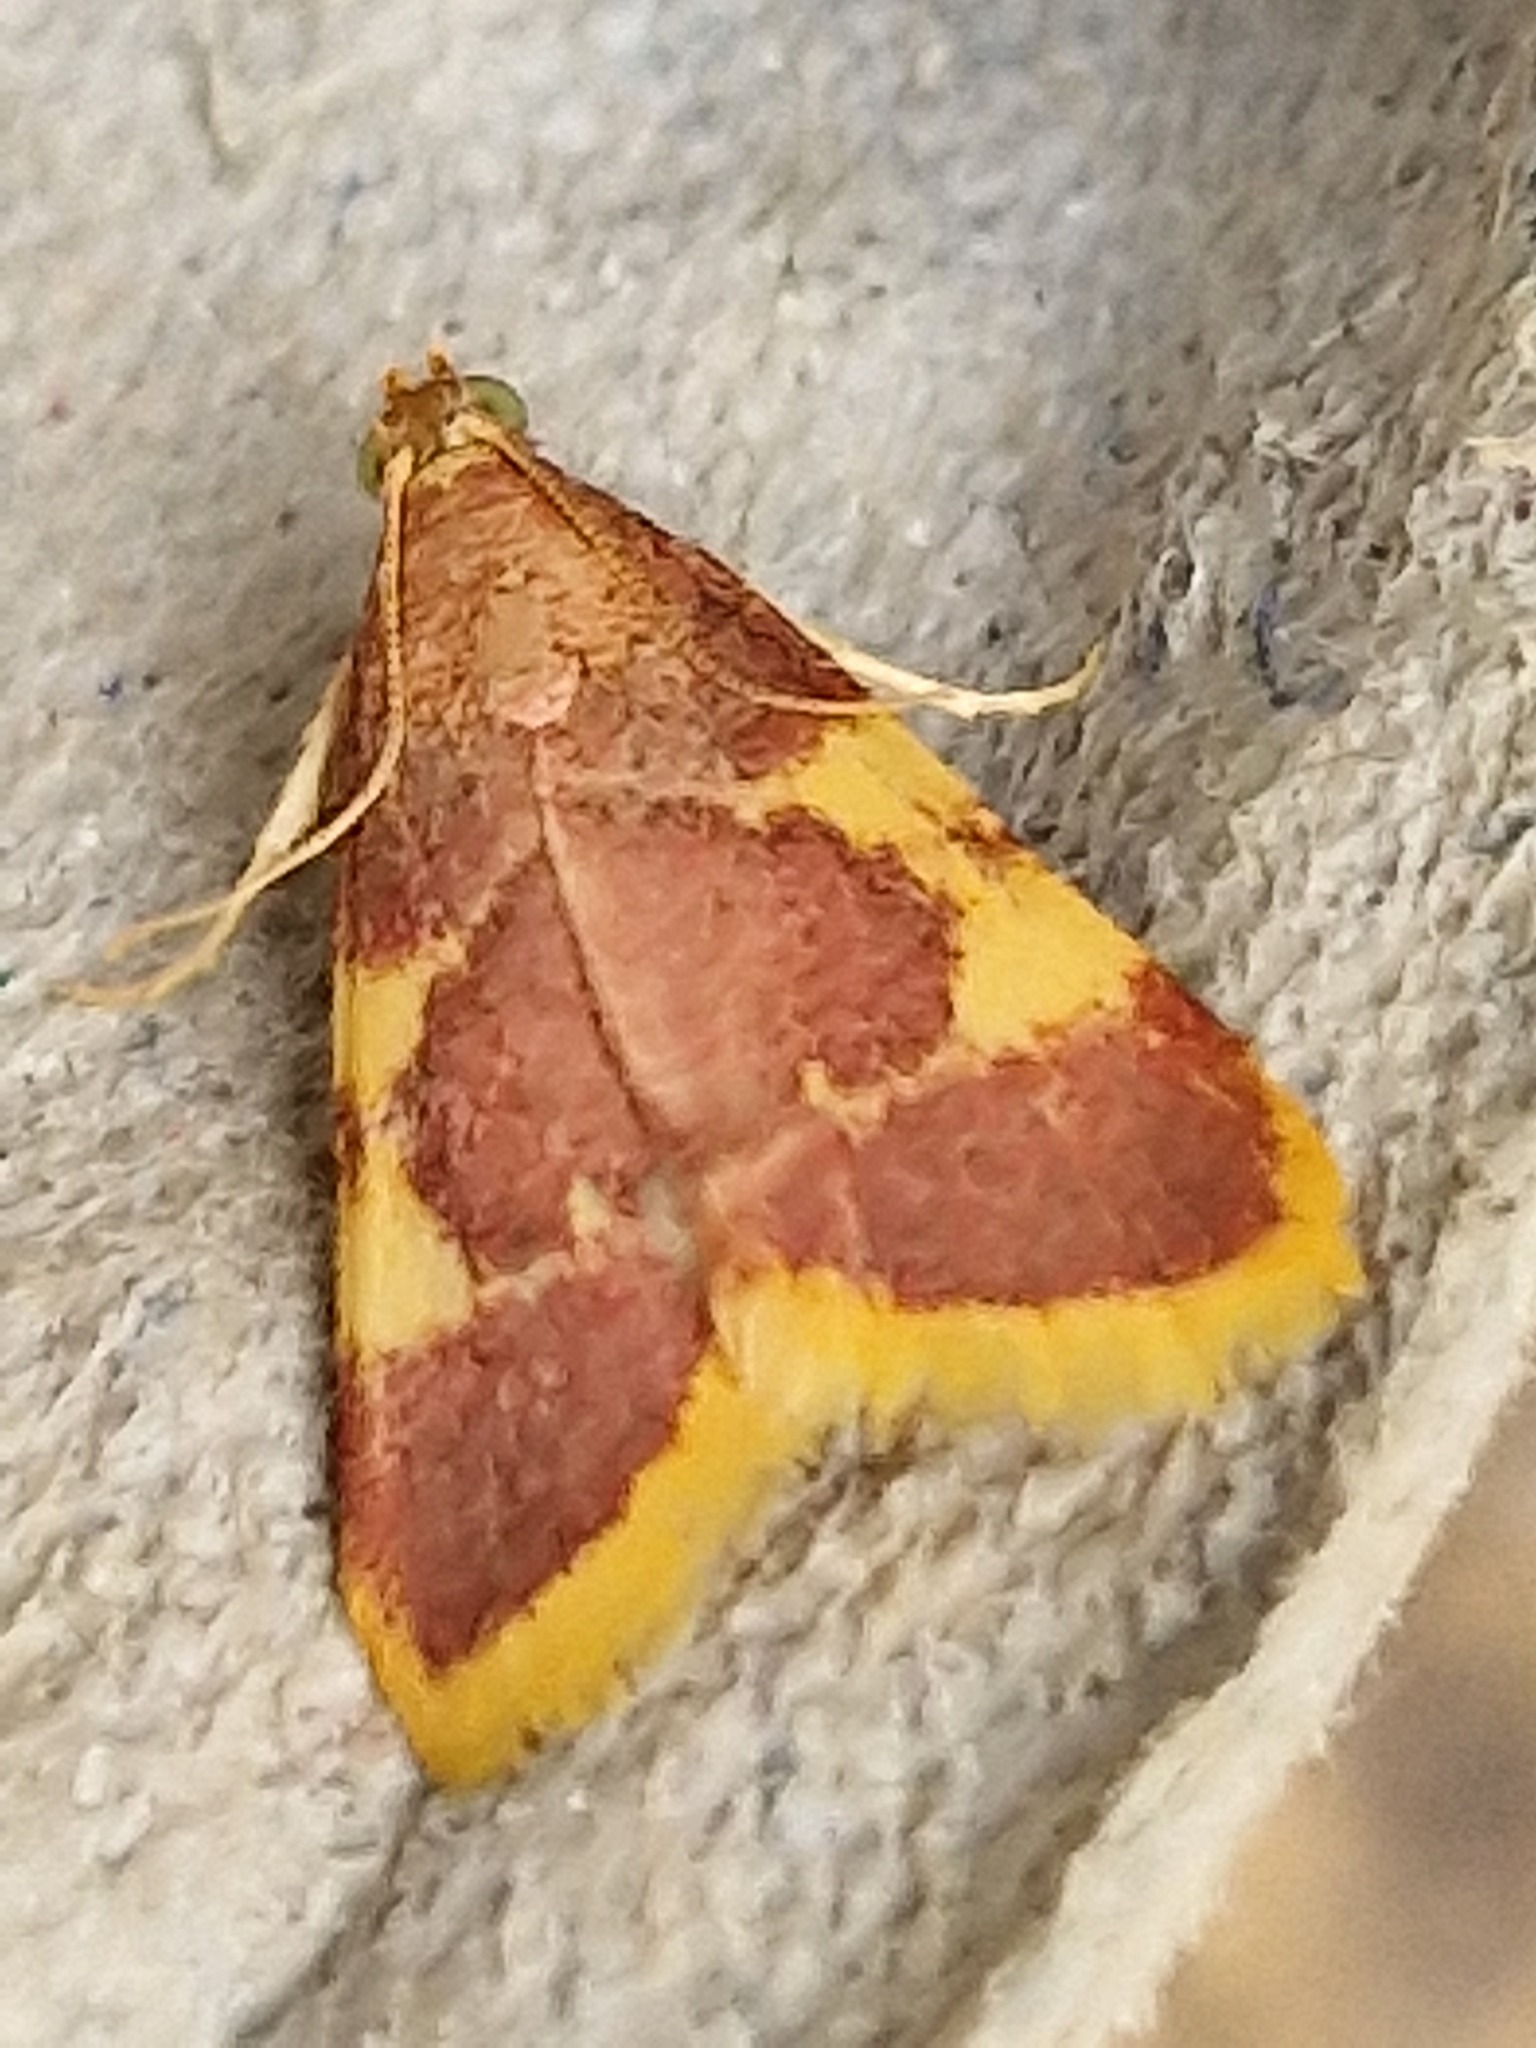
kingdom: Animalia
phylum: Arthropoda
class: Insecta
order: Lepidoptera
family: Pyralidae
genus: Hypsopygia
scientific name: Hypsopygia costalis
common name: Gold triangle
